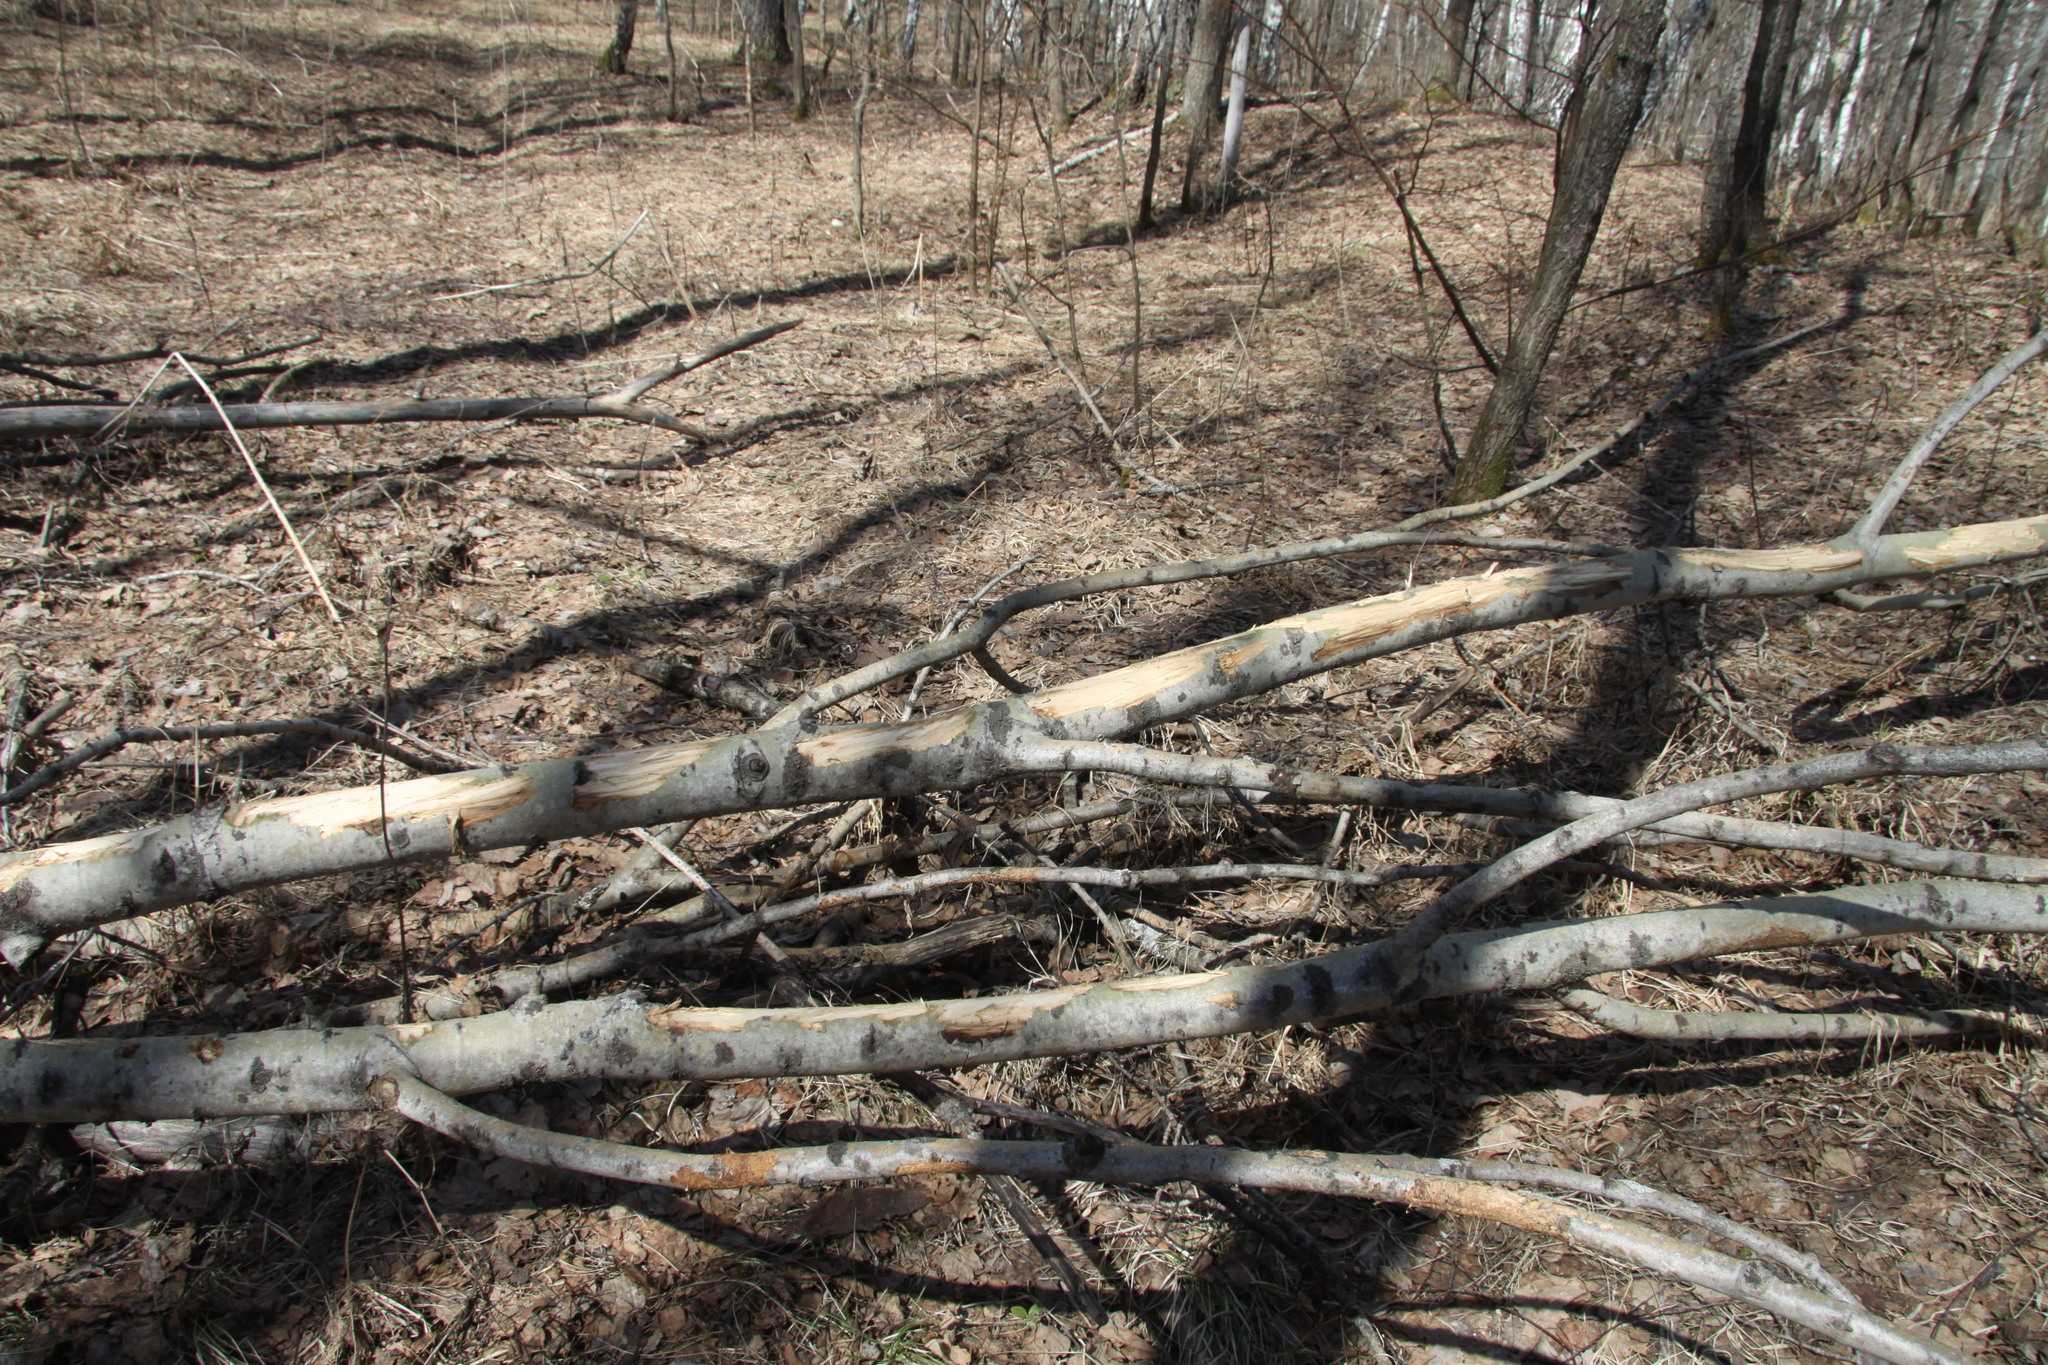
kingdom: Animalia
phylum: Chordata
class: Mammalia
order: Artiodactyla
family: Cervidae
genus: Alces
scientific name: Alces alces
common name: Moose
